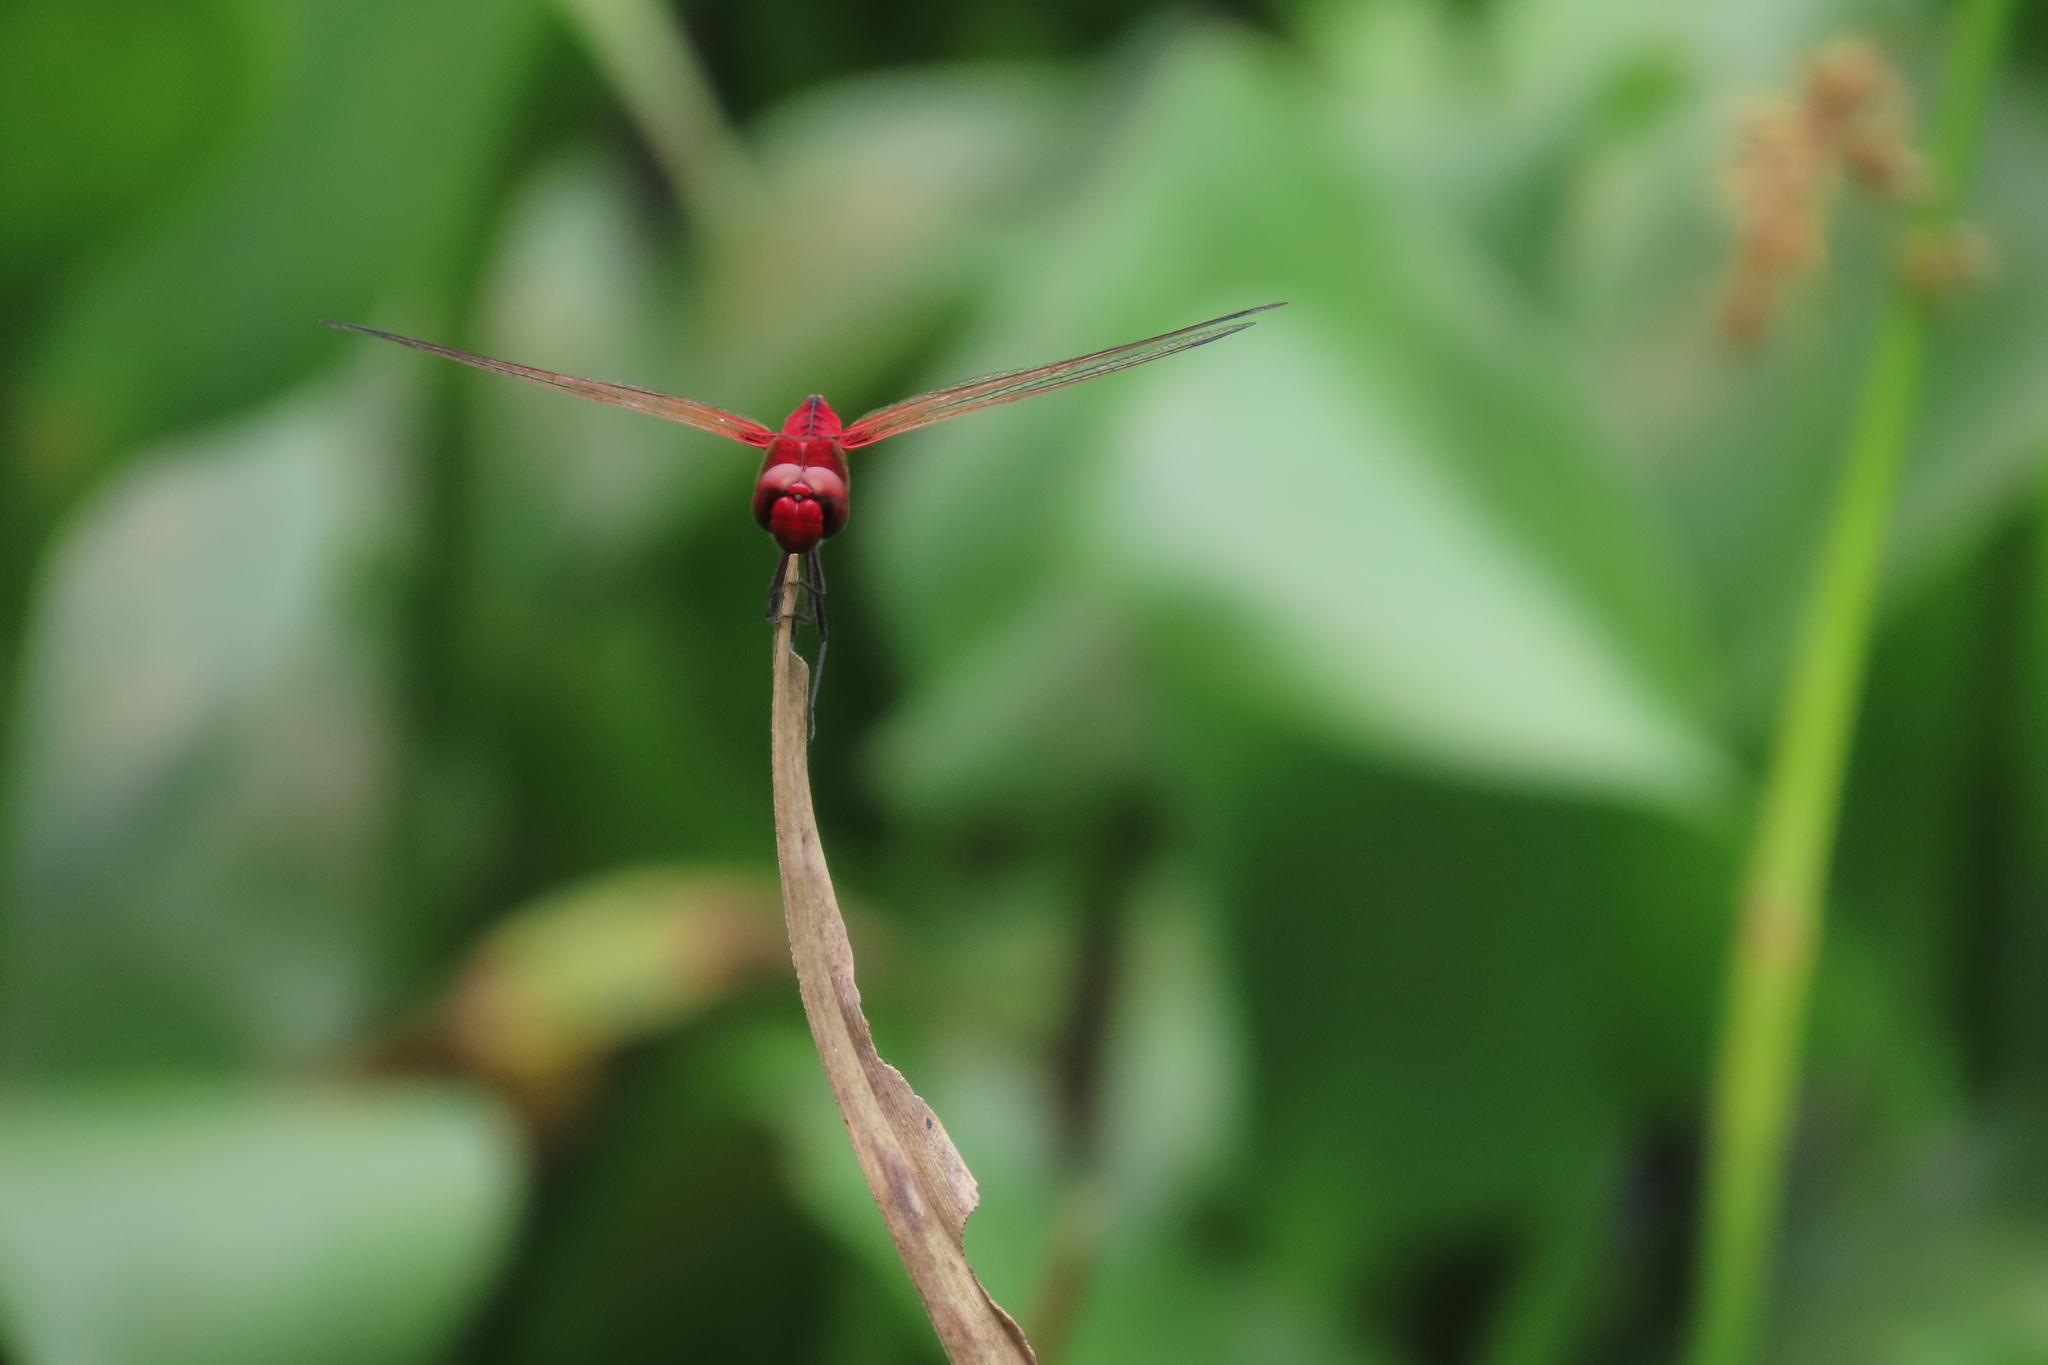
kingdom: Animalia
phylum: Arthropoda
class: Insecta
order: Odonata
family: Libellulidae
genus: Urothemis
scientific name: Urothemis signata
